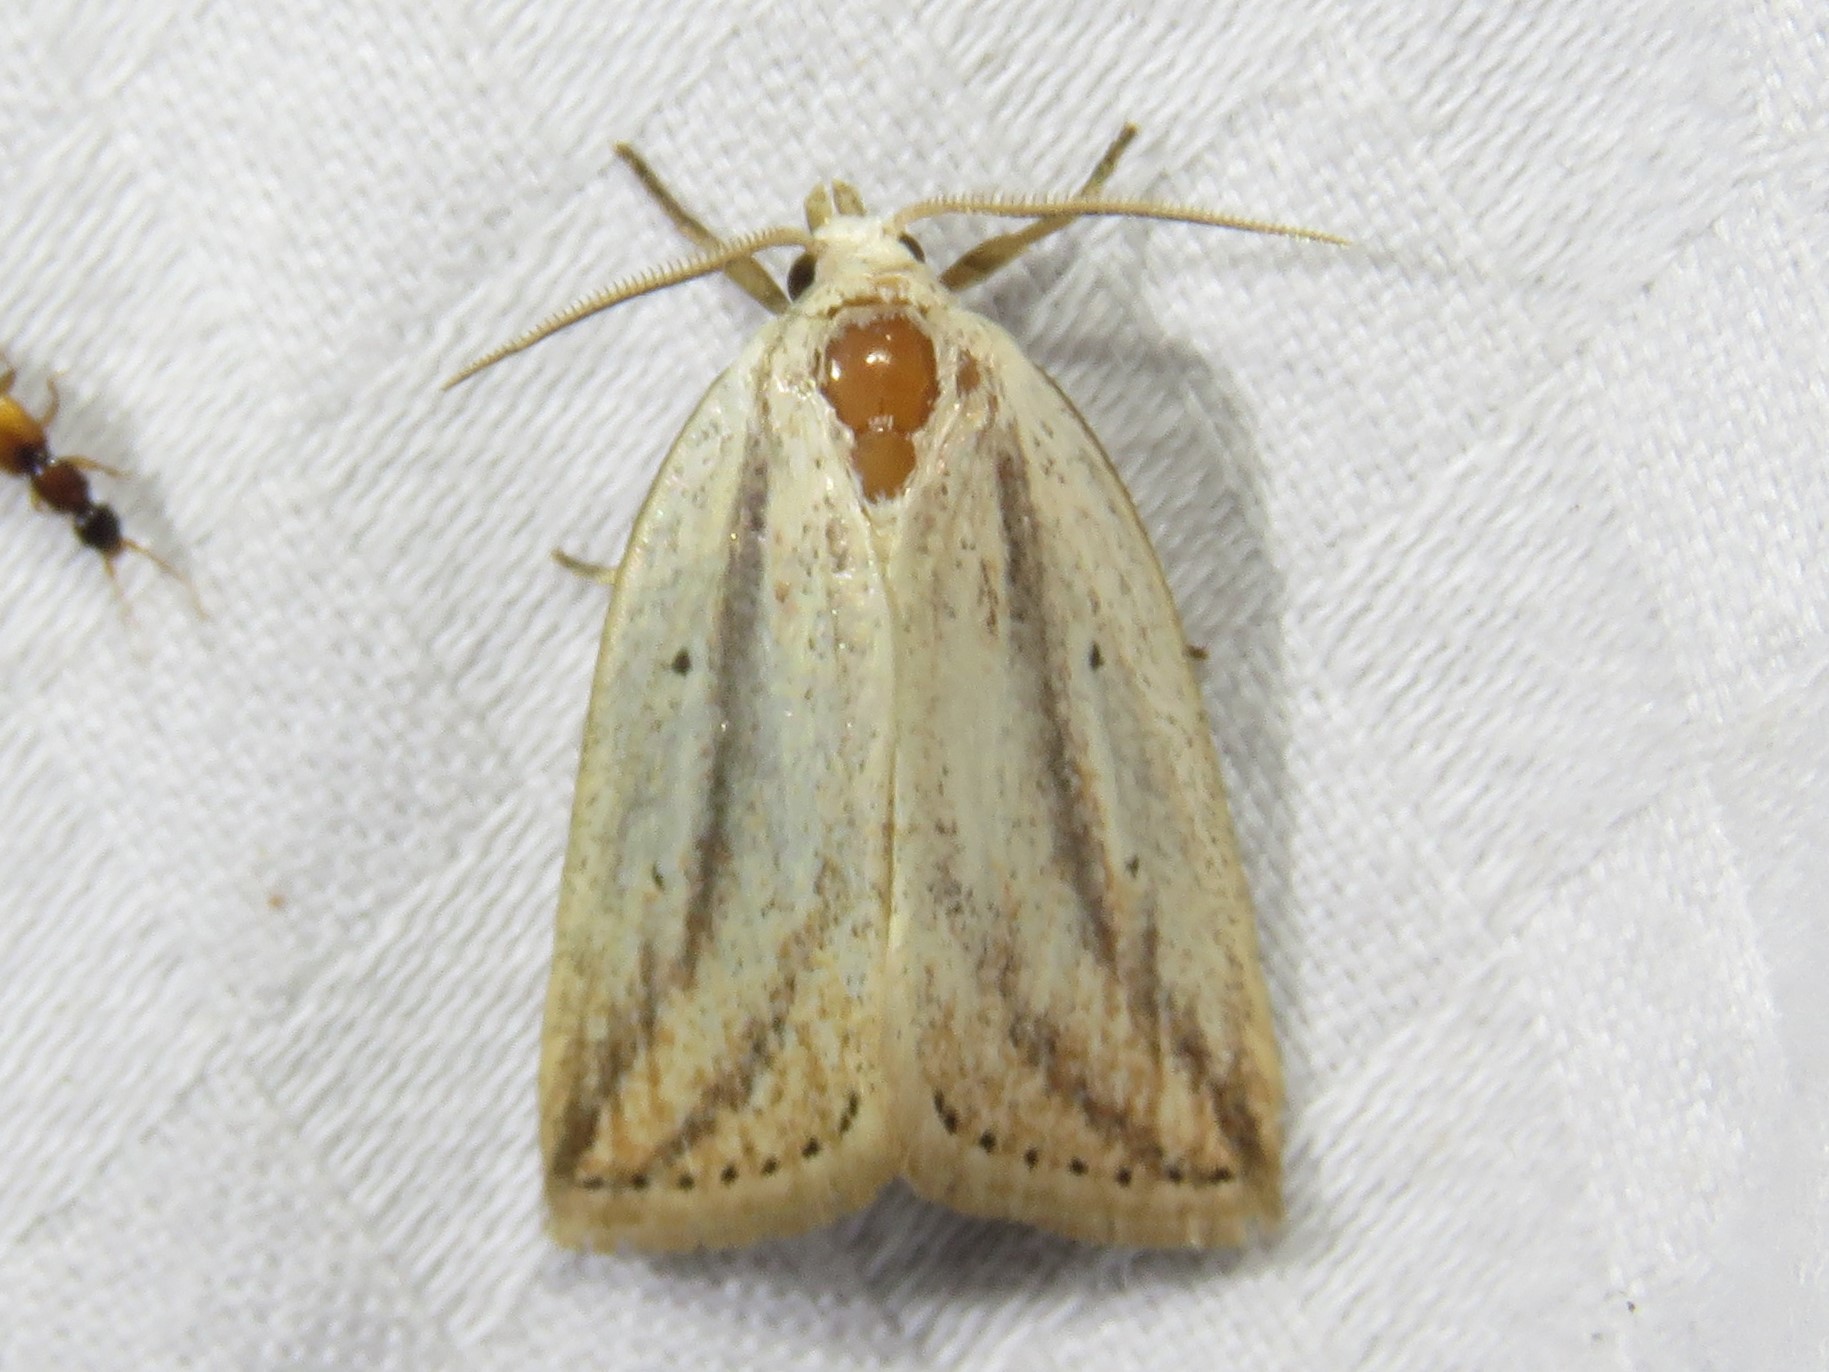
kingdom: Animalia
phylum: Arthropoda
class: Insecta
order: Lepidoptera
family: Noctuidae
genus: Amolita
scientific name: Amolita fessa
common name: Feeble grass moth
